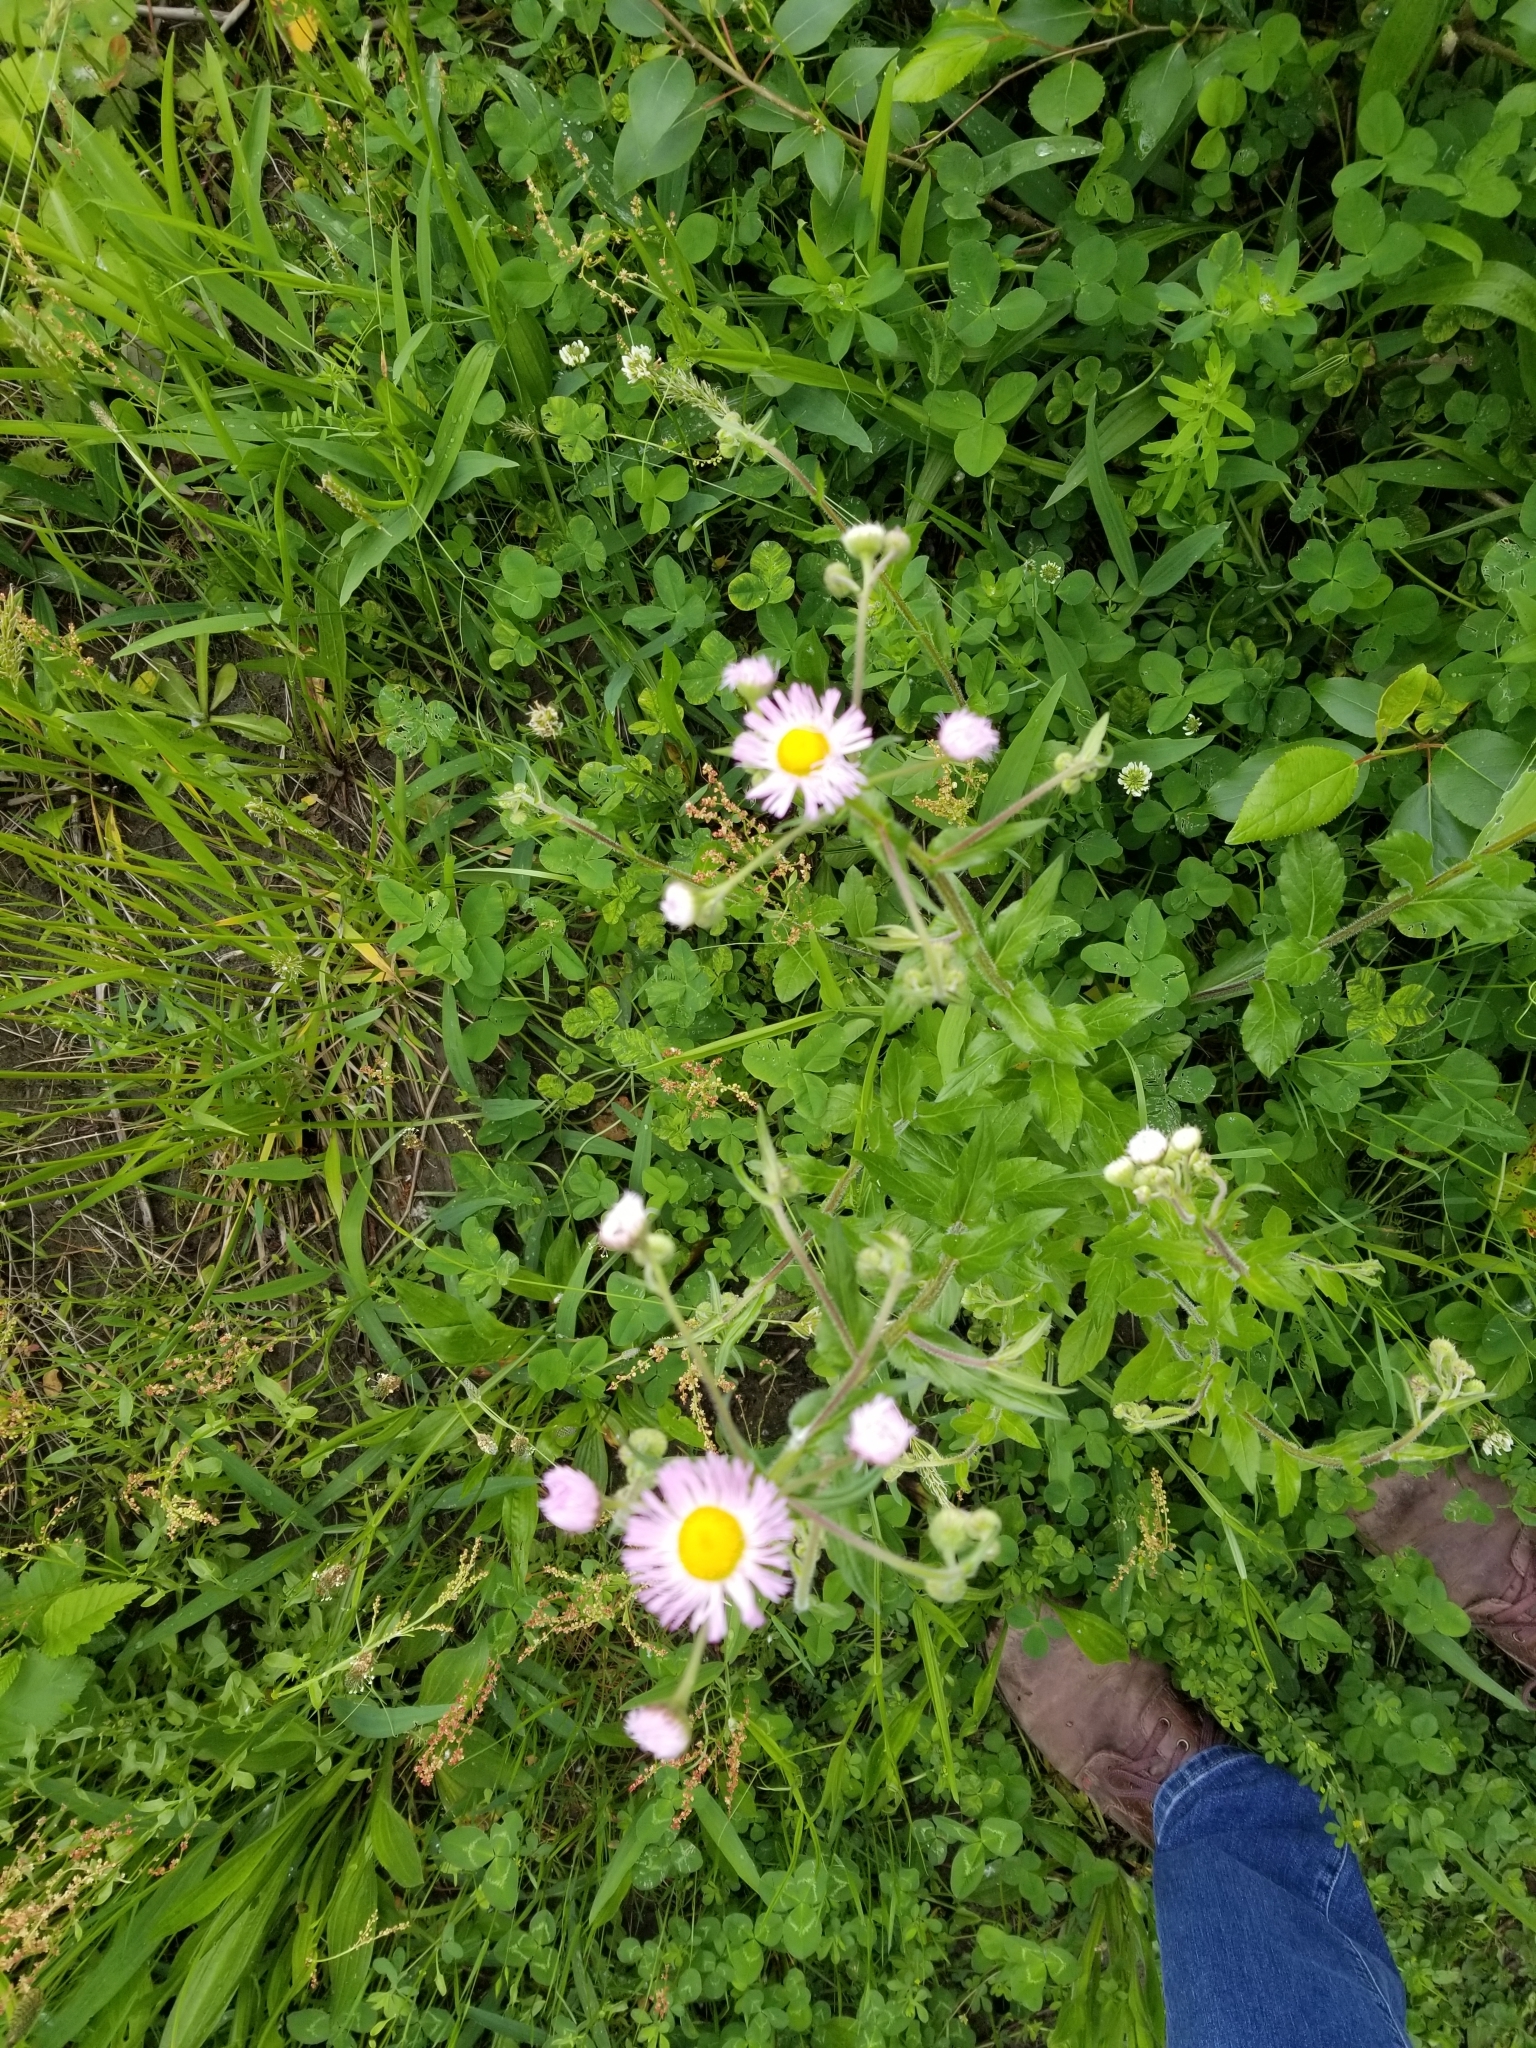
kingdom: Plantae
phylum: Tracheophyta
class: Magnoliopsida
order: Asterales
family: Asteraceae
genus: Erigeron
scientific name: Erigeron philadelphicus
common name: Robin's-plantain
